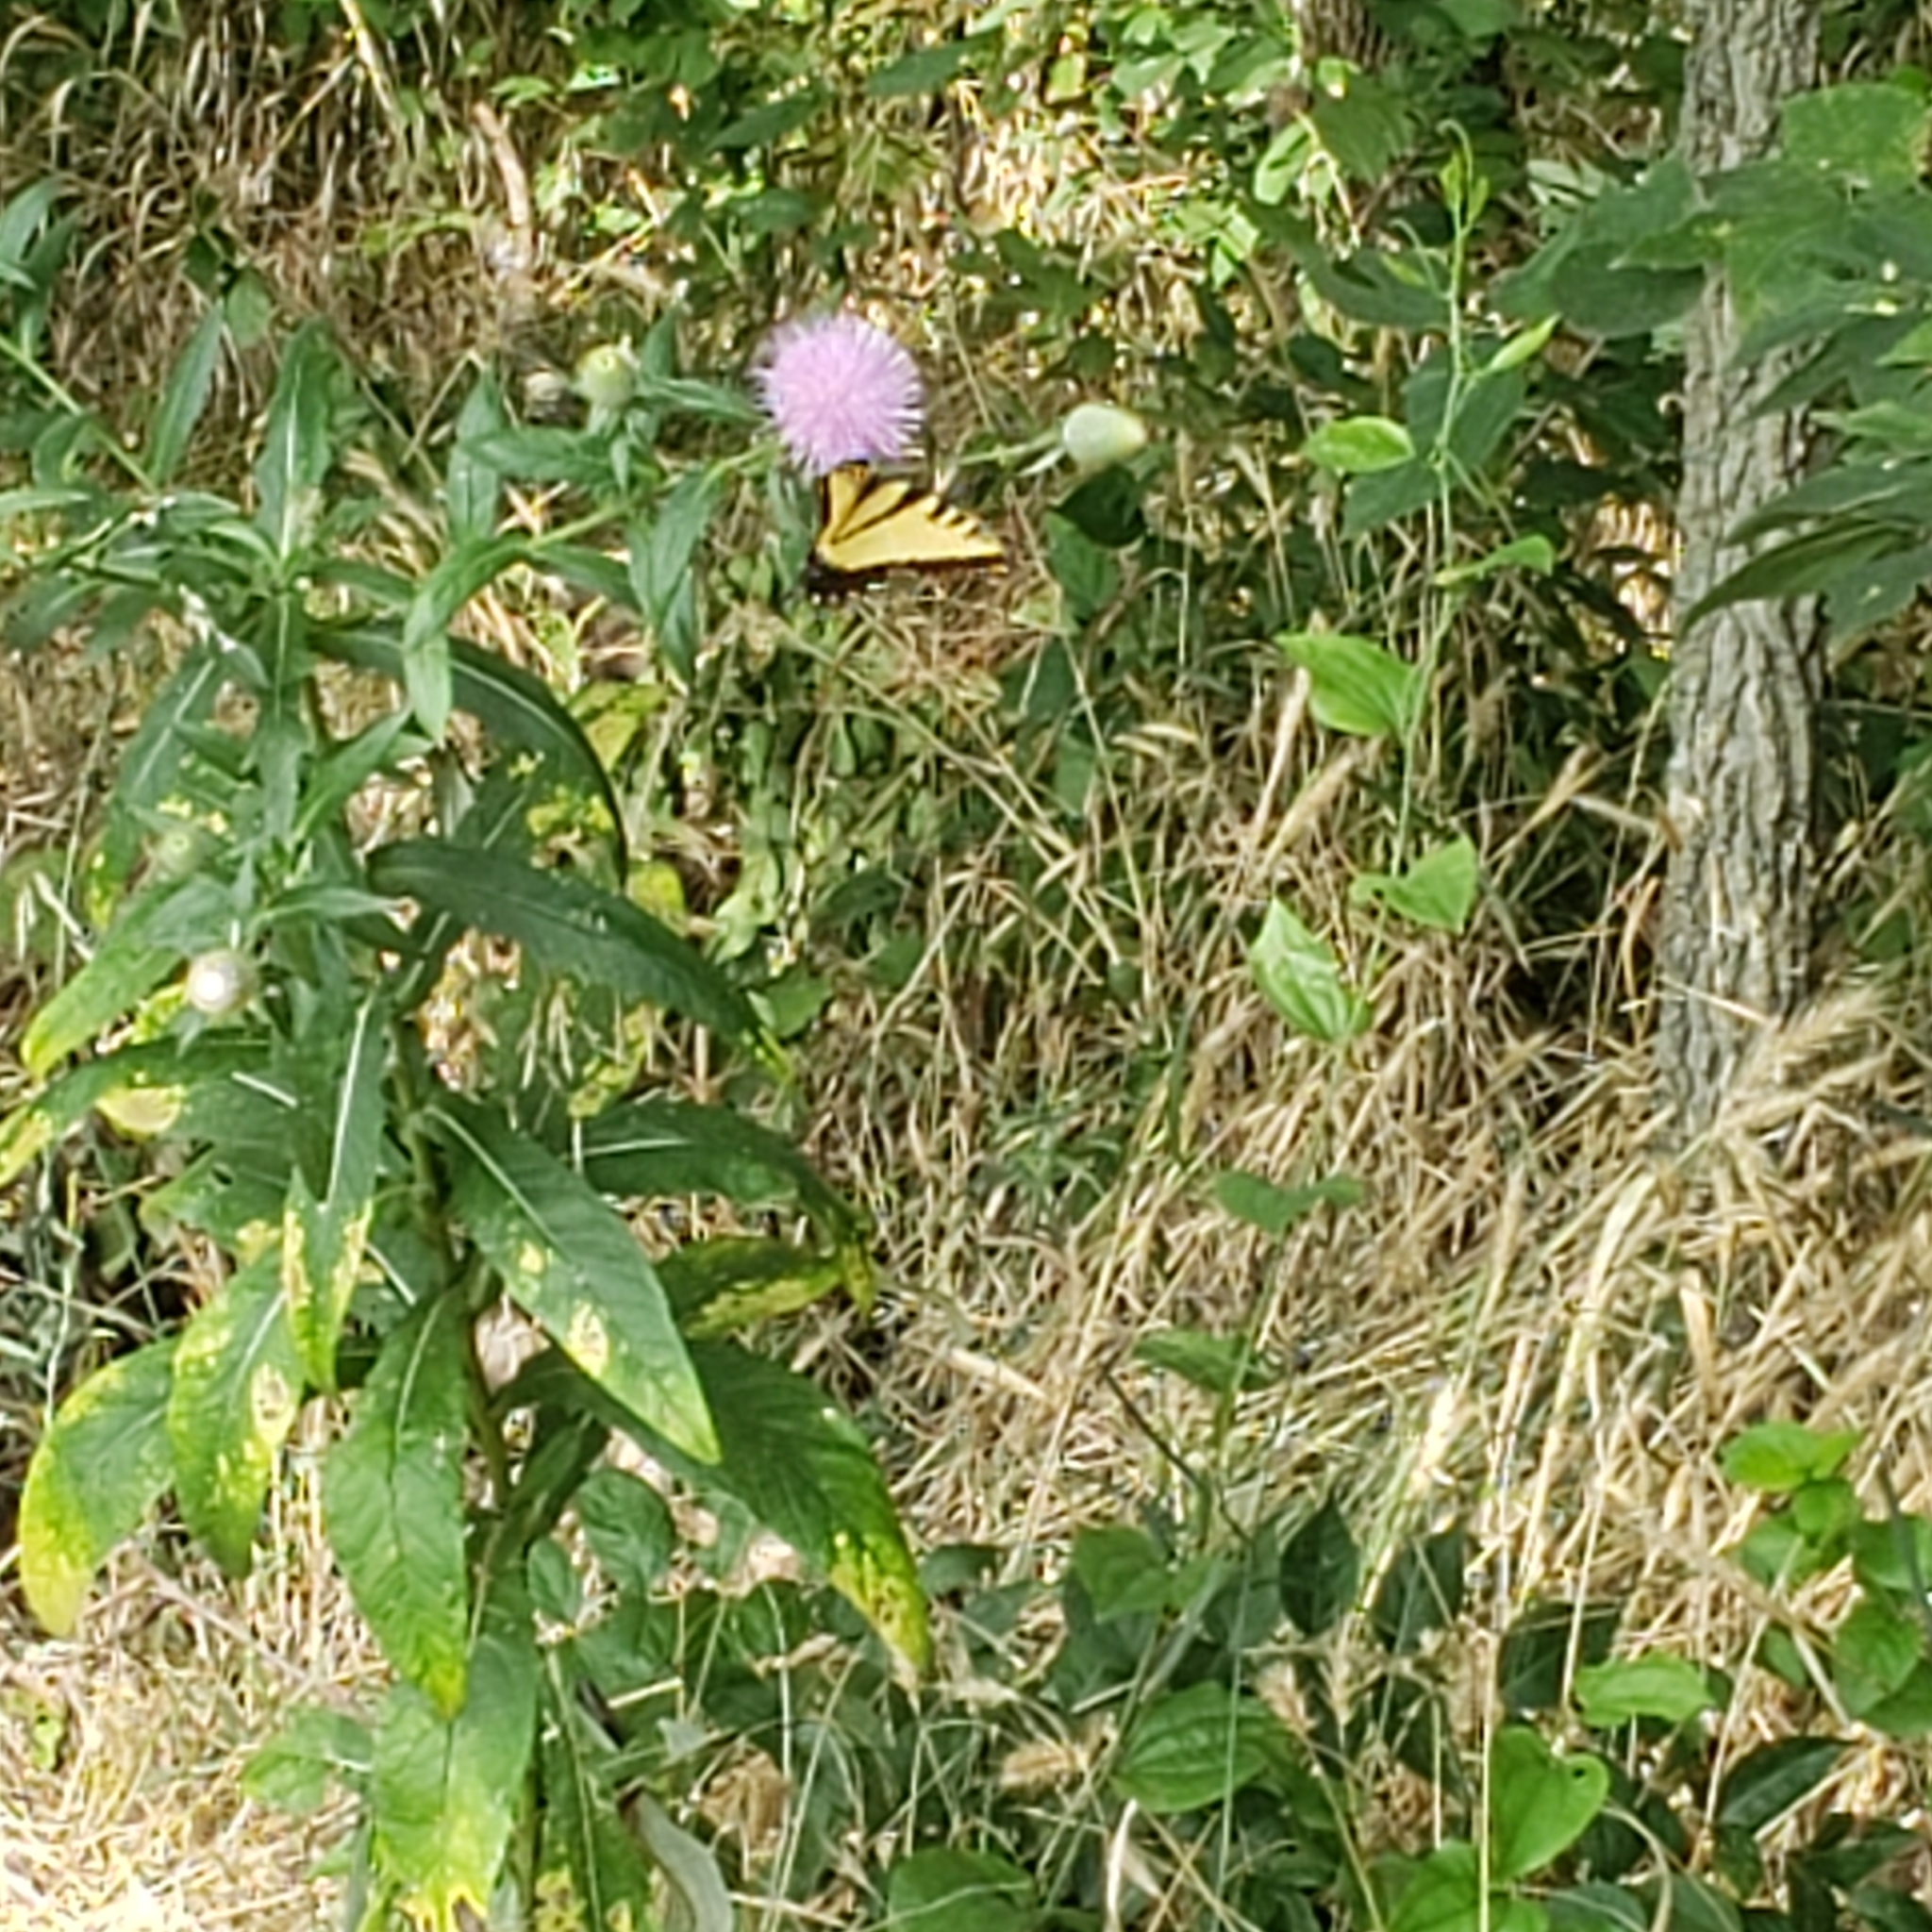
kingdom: Animalia
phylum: Arthropoda
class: Insecta
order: Lepidoptera
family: Papilionidae
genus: Papilio
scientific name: Papilio glaucus
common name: Tiger swallowtail
